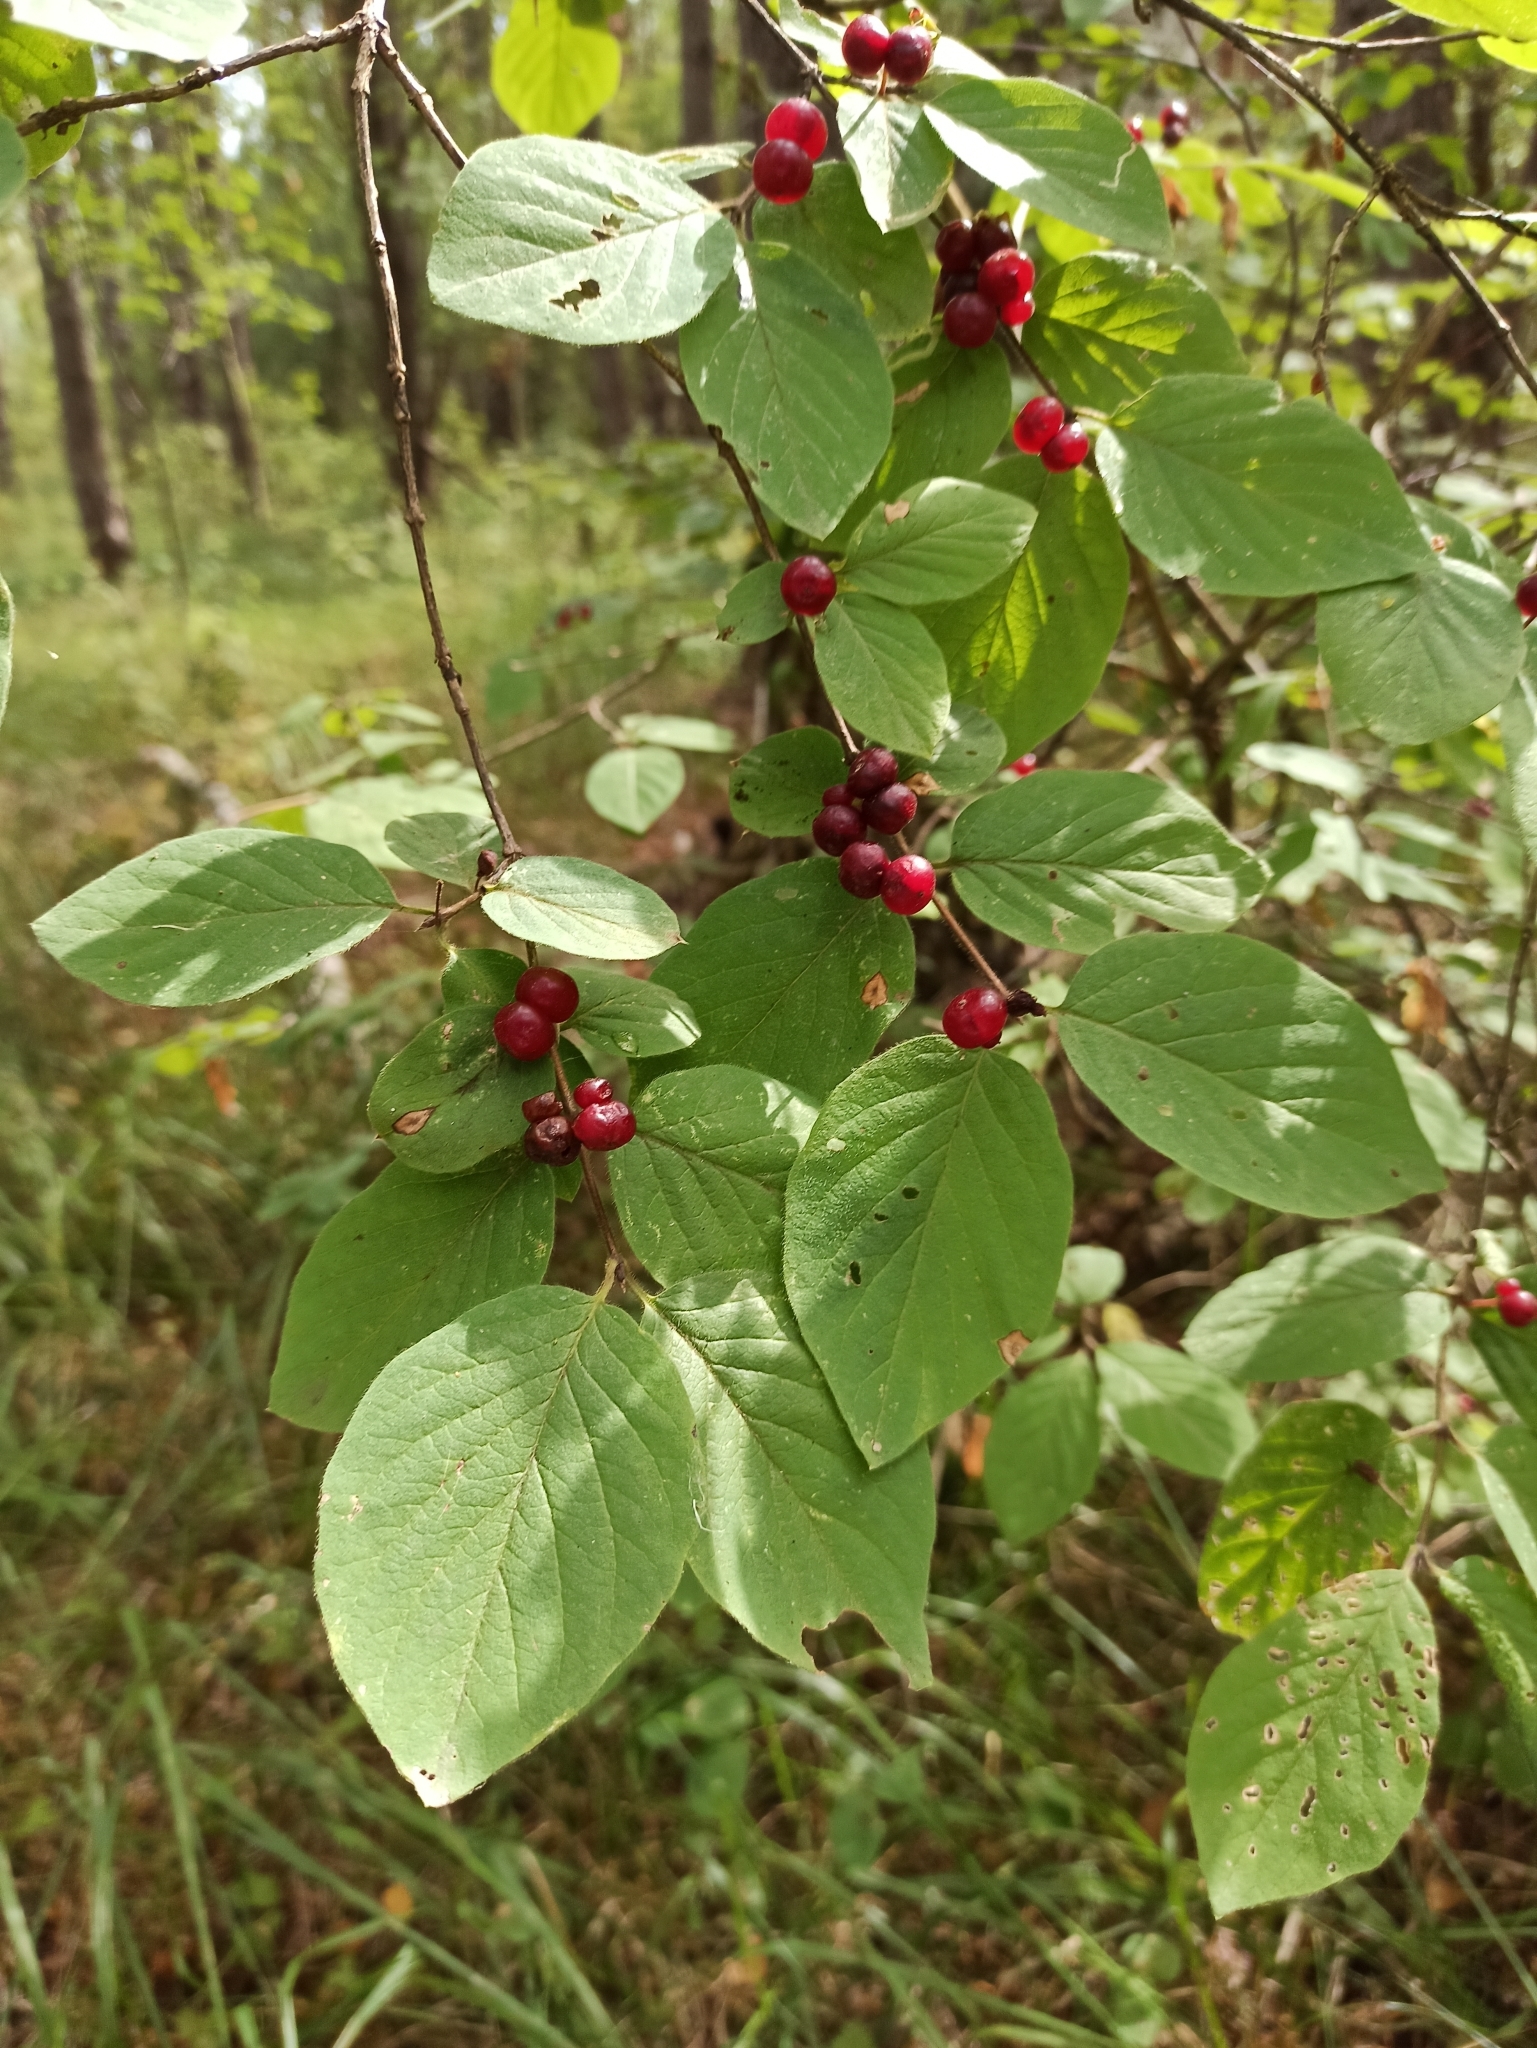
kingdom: Plantae
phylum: Tracheophyta
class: Magnoliopsida
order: Dipsacales
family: Caprifoliaceae
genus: Lonicera
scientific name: Lonicera xylosteum
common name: Fly honeysuckle
